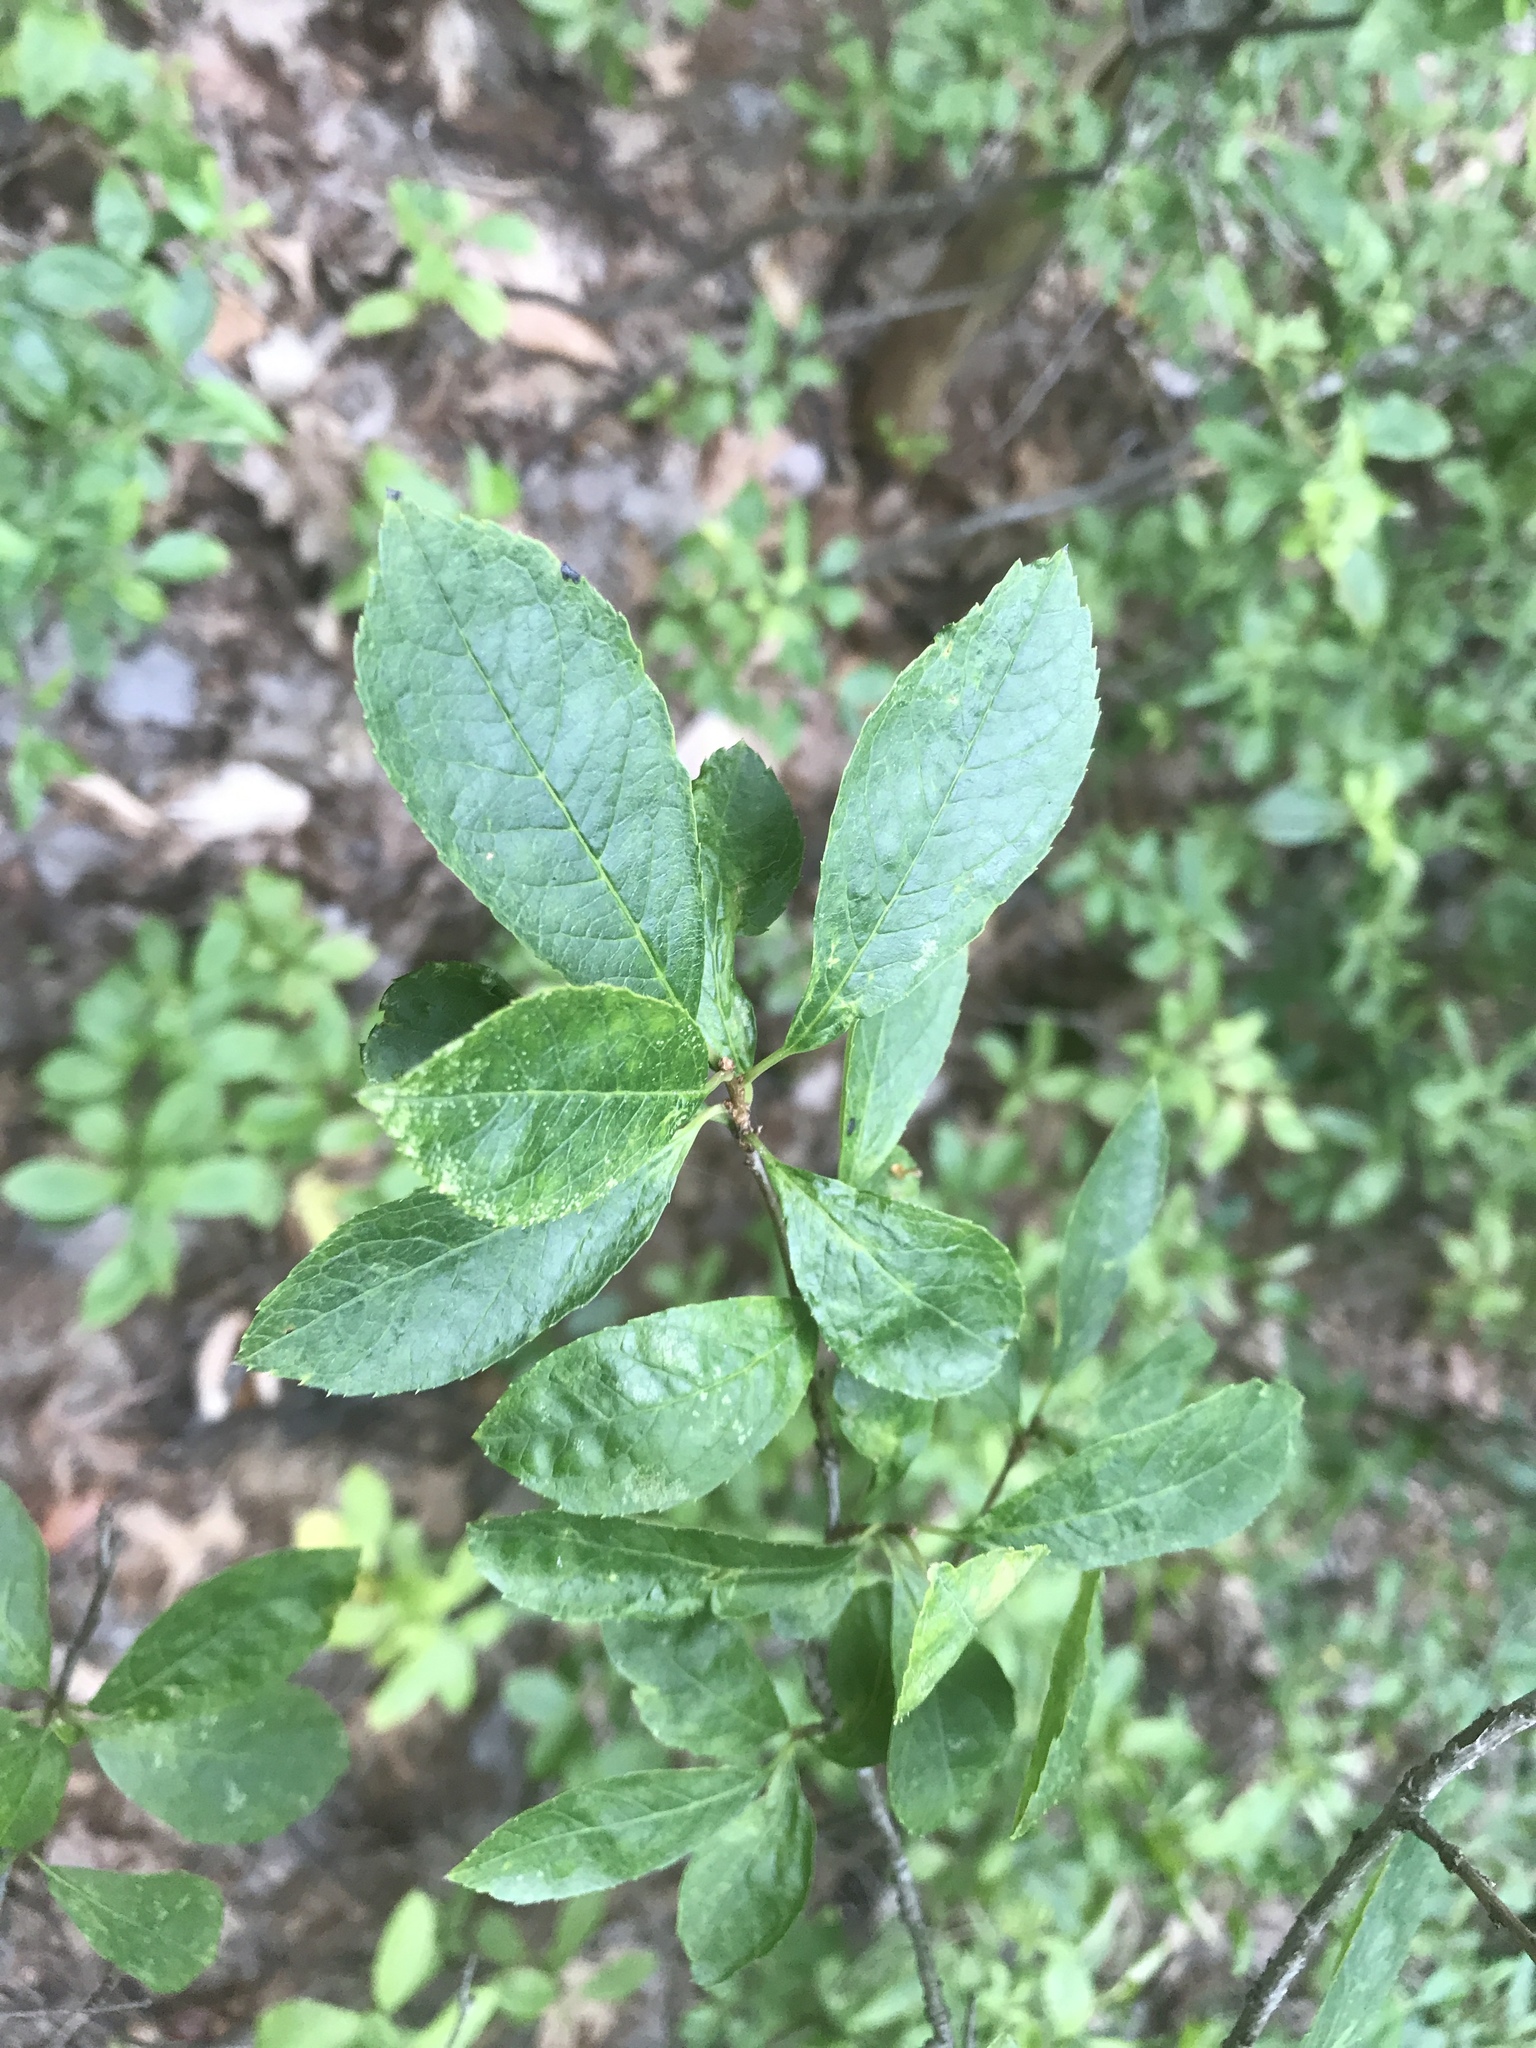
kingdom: Plantae
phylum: Tracheophyta
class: Magnoliopsida
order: Aquifoliales
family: Aquifoliaceae
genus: Ilex
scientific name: Ilex verticillata
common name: Virginia winterberry
